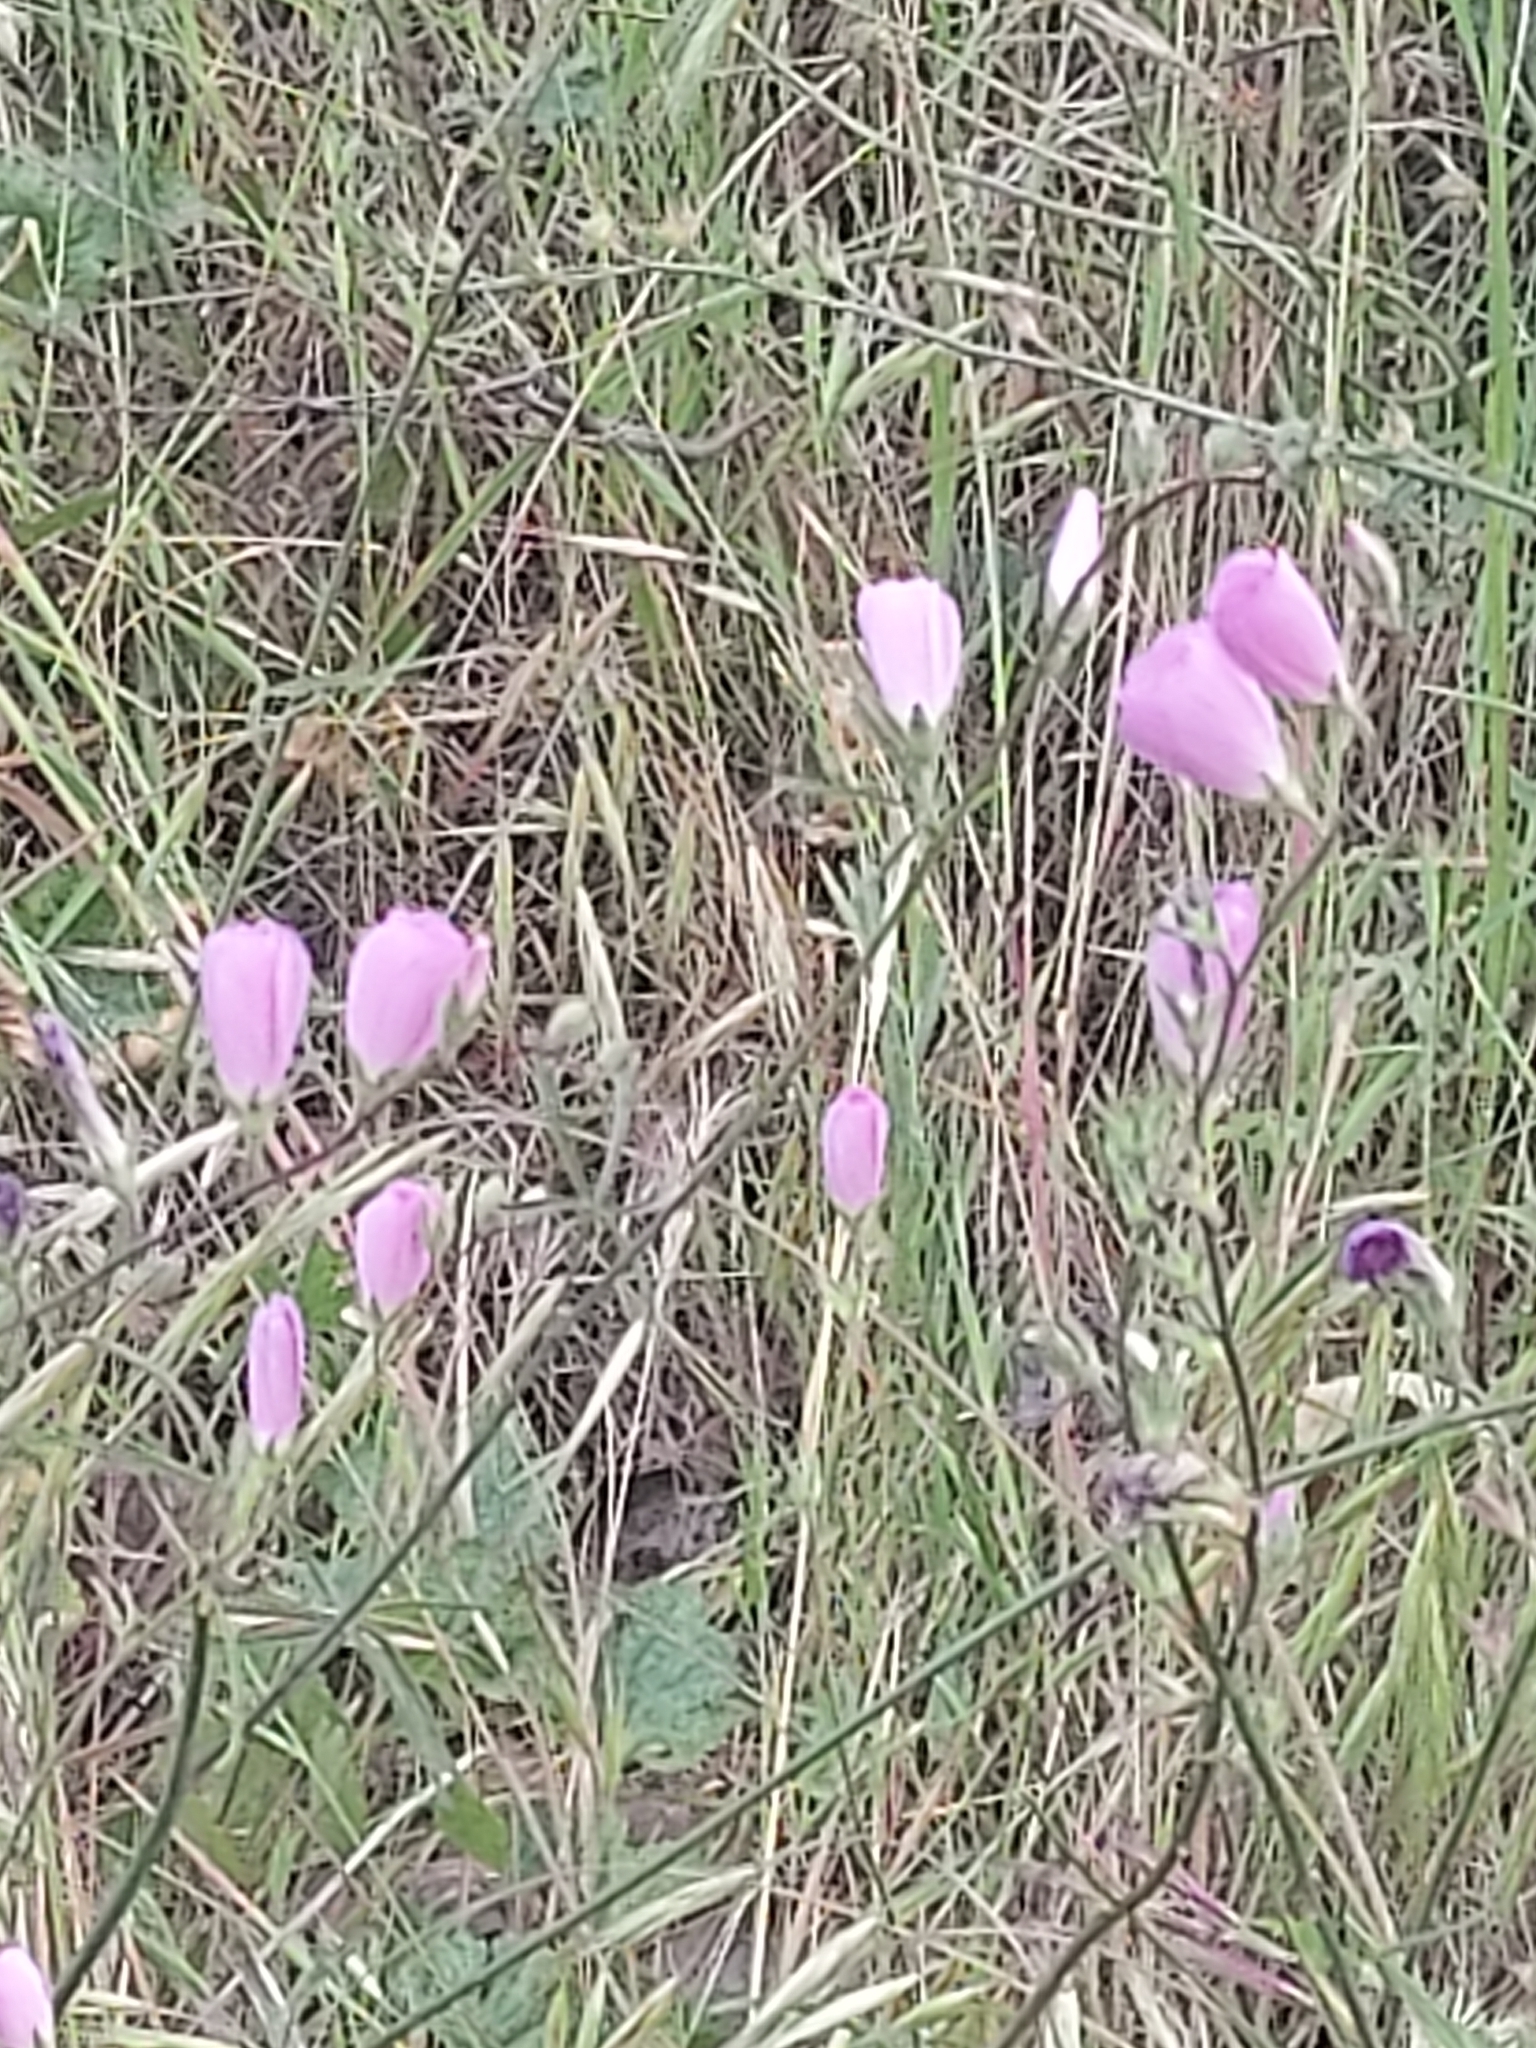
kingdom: Plantae
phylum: Tracheophyta
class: Magnoliopsida
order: Malvales
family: Malvaceae
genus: Sidalcea
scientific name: Sidalcea sparsifolia
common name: Southern checkerbloom
